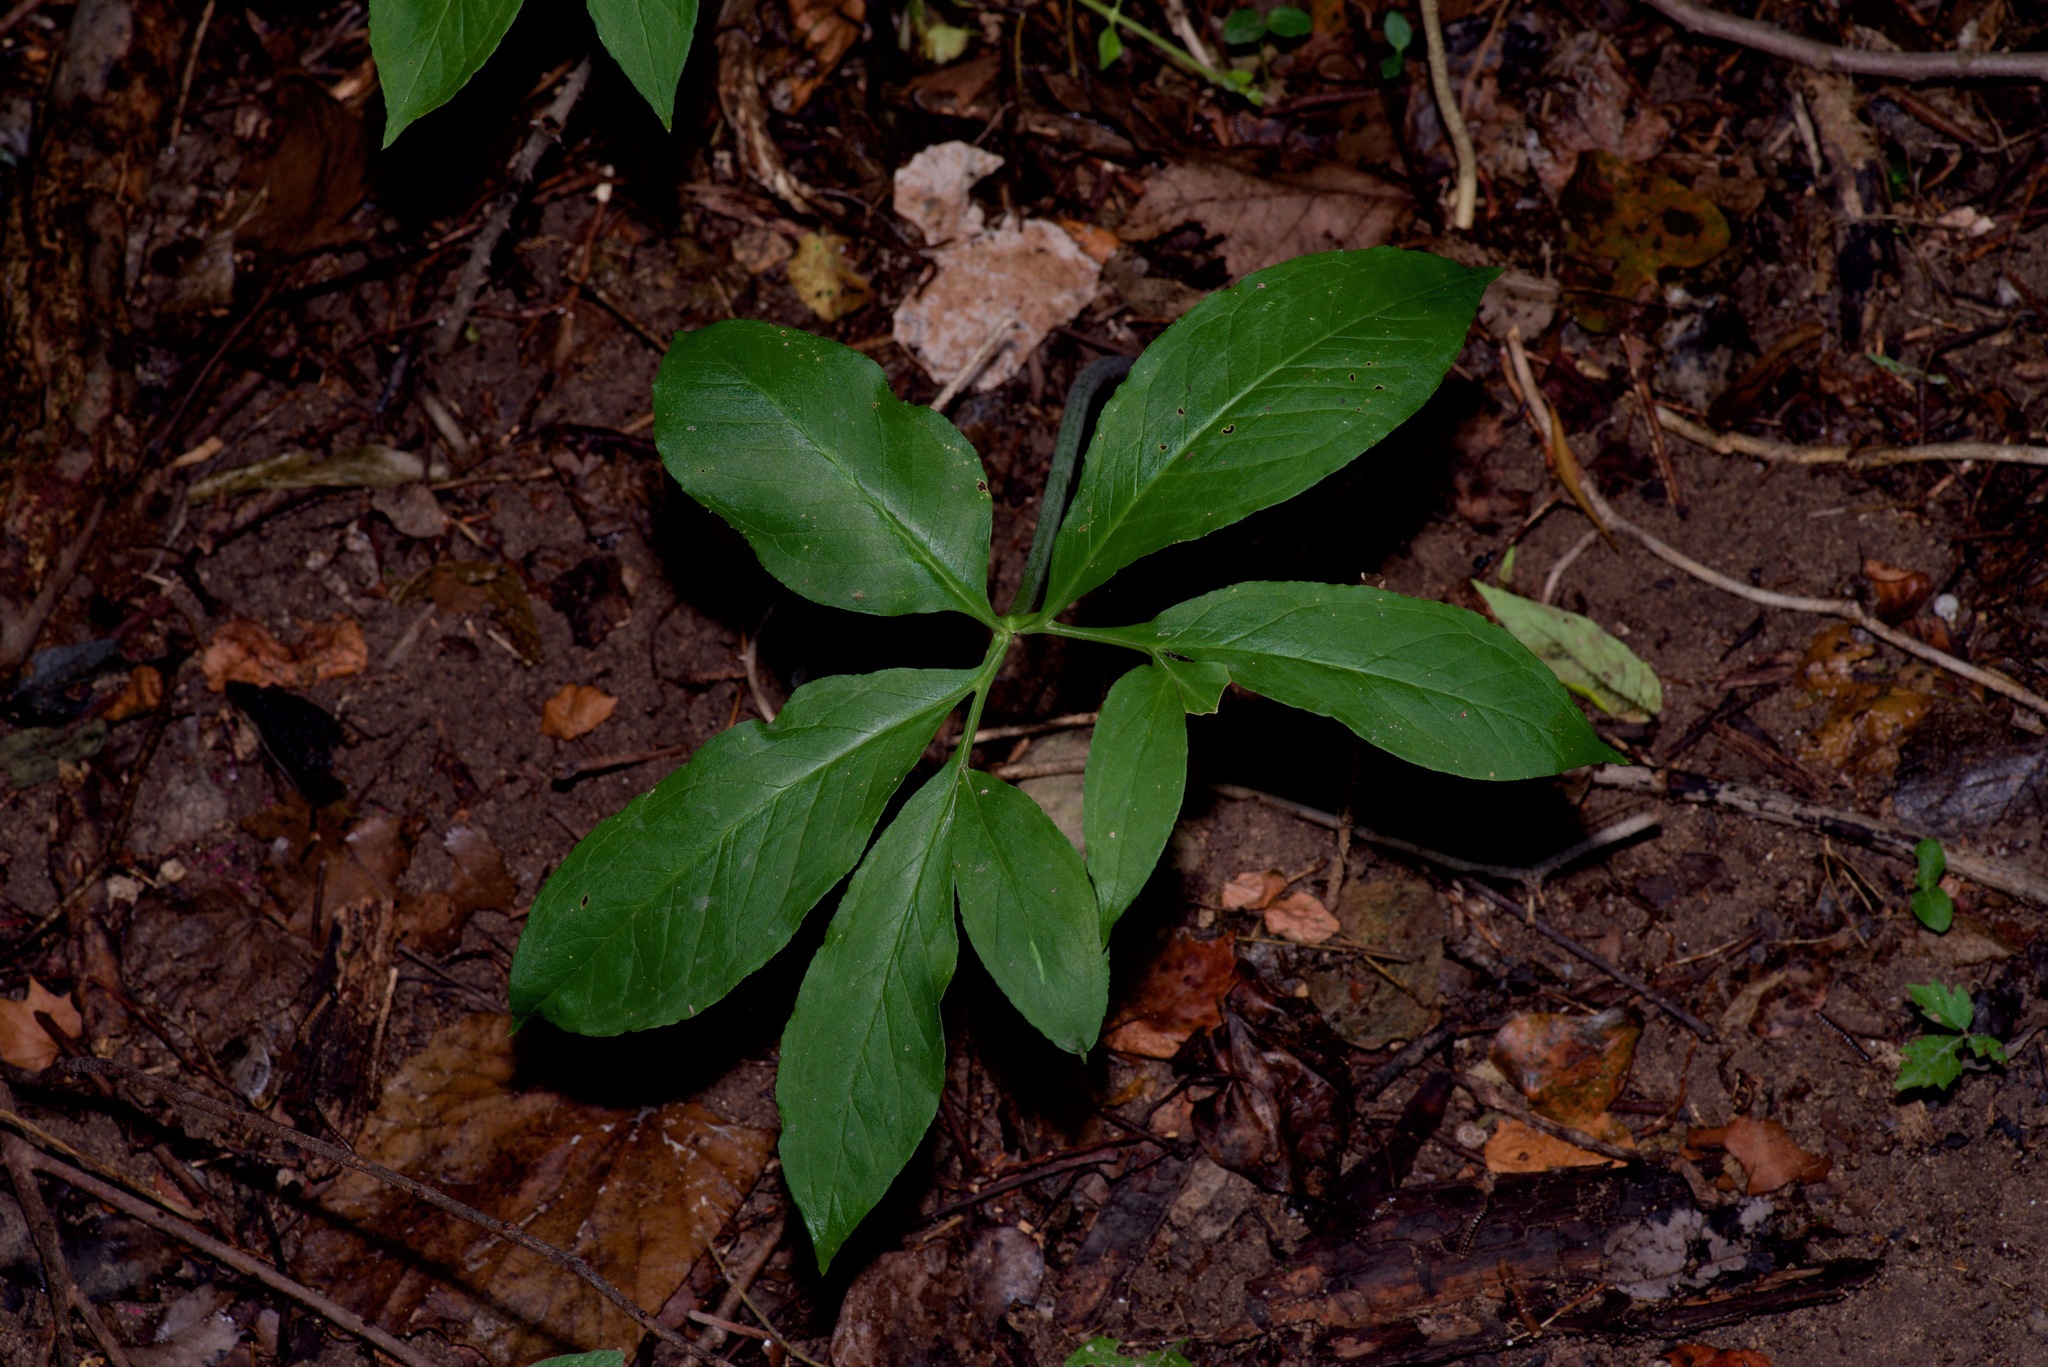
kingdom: Plantae
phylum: Tracheophyta
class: Liliopsida
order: Alismatales
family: Araceae
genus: Arisaema
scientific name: Arisaema dracontium
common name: Dragon-arum
